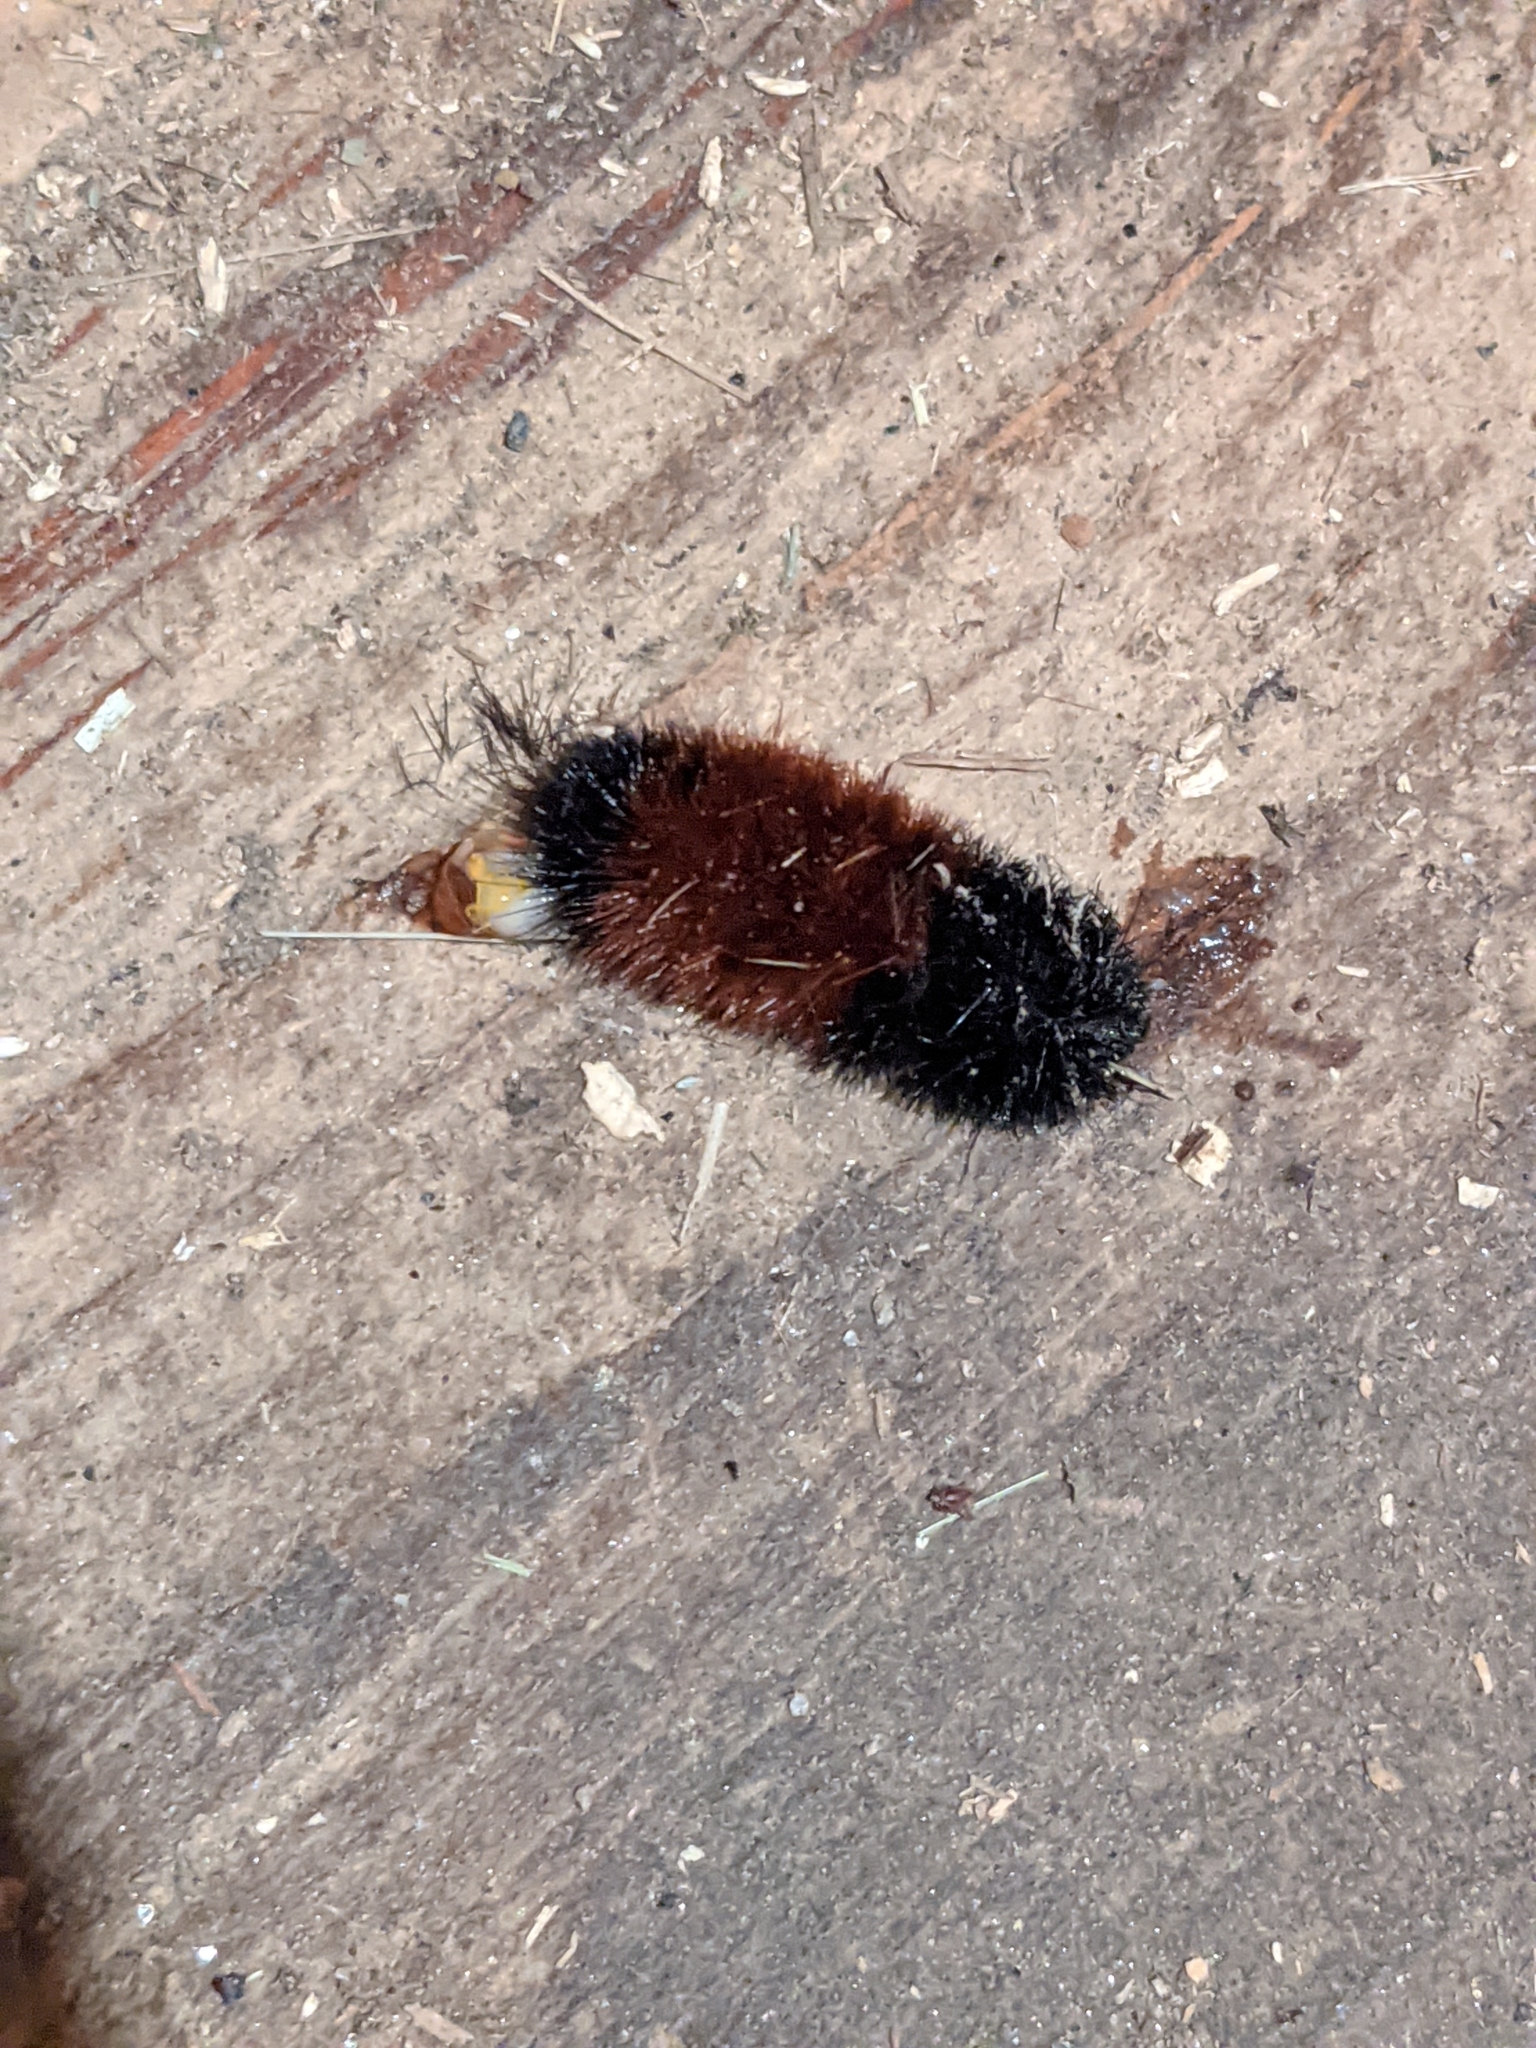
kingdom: Animalia
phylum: Arthropoda
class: Insecta
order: Lepidoptera
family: Erebidae
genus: Pyrrharctia
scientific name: Pyrrharctia isabella
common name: Isabella tiger moth
